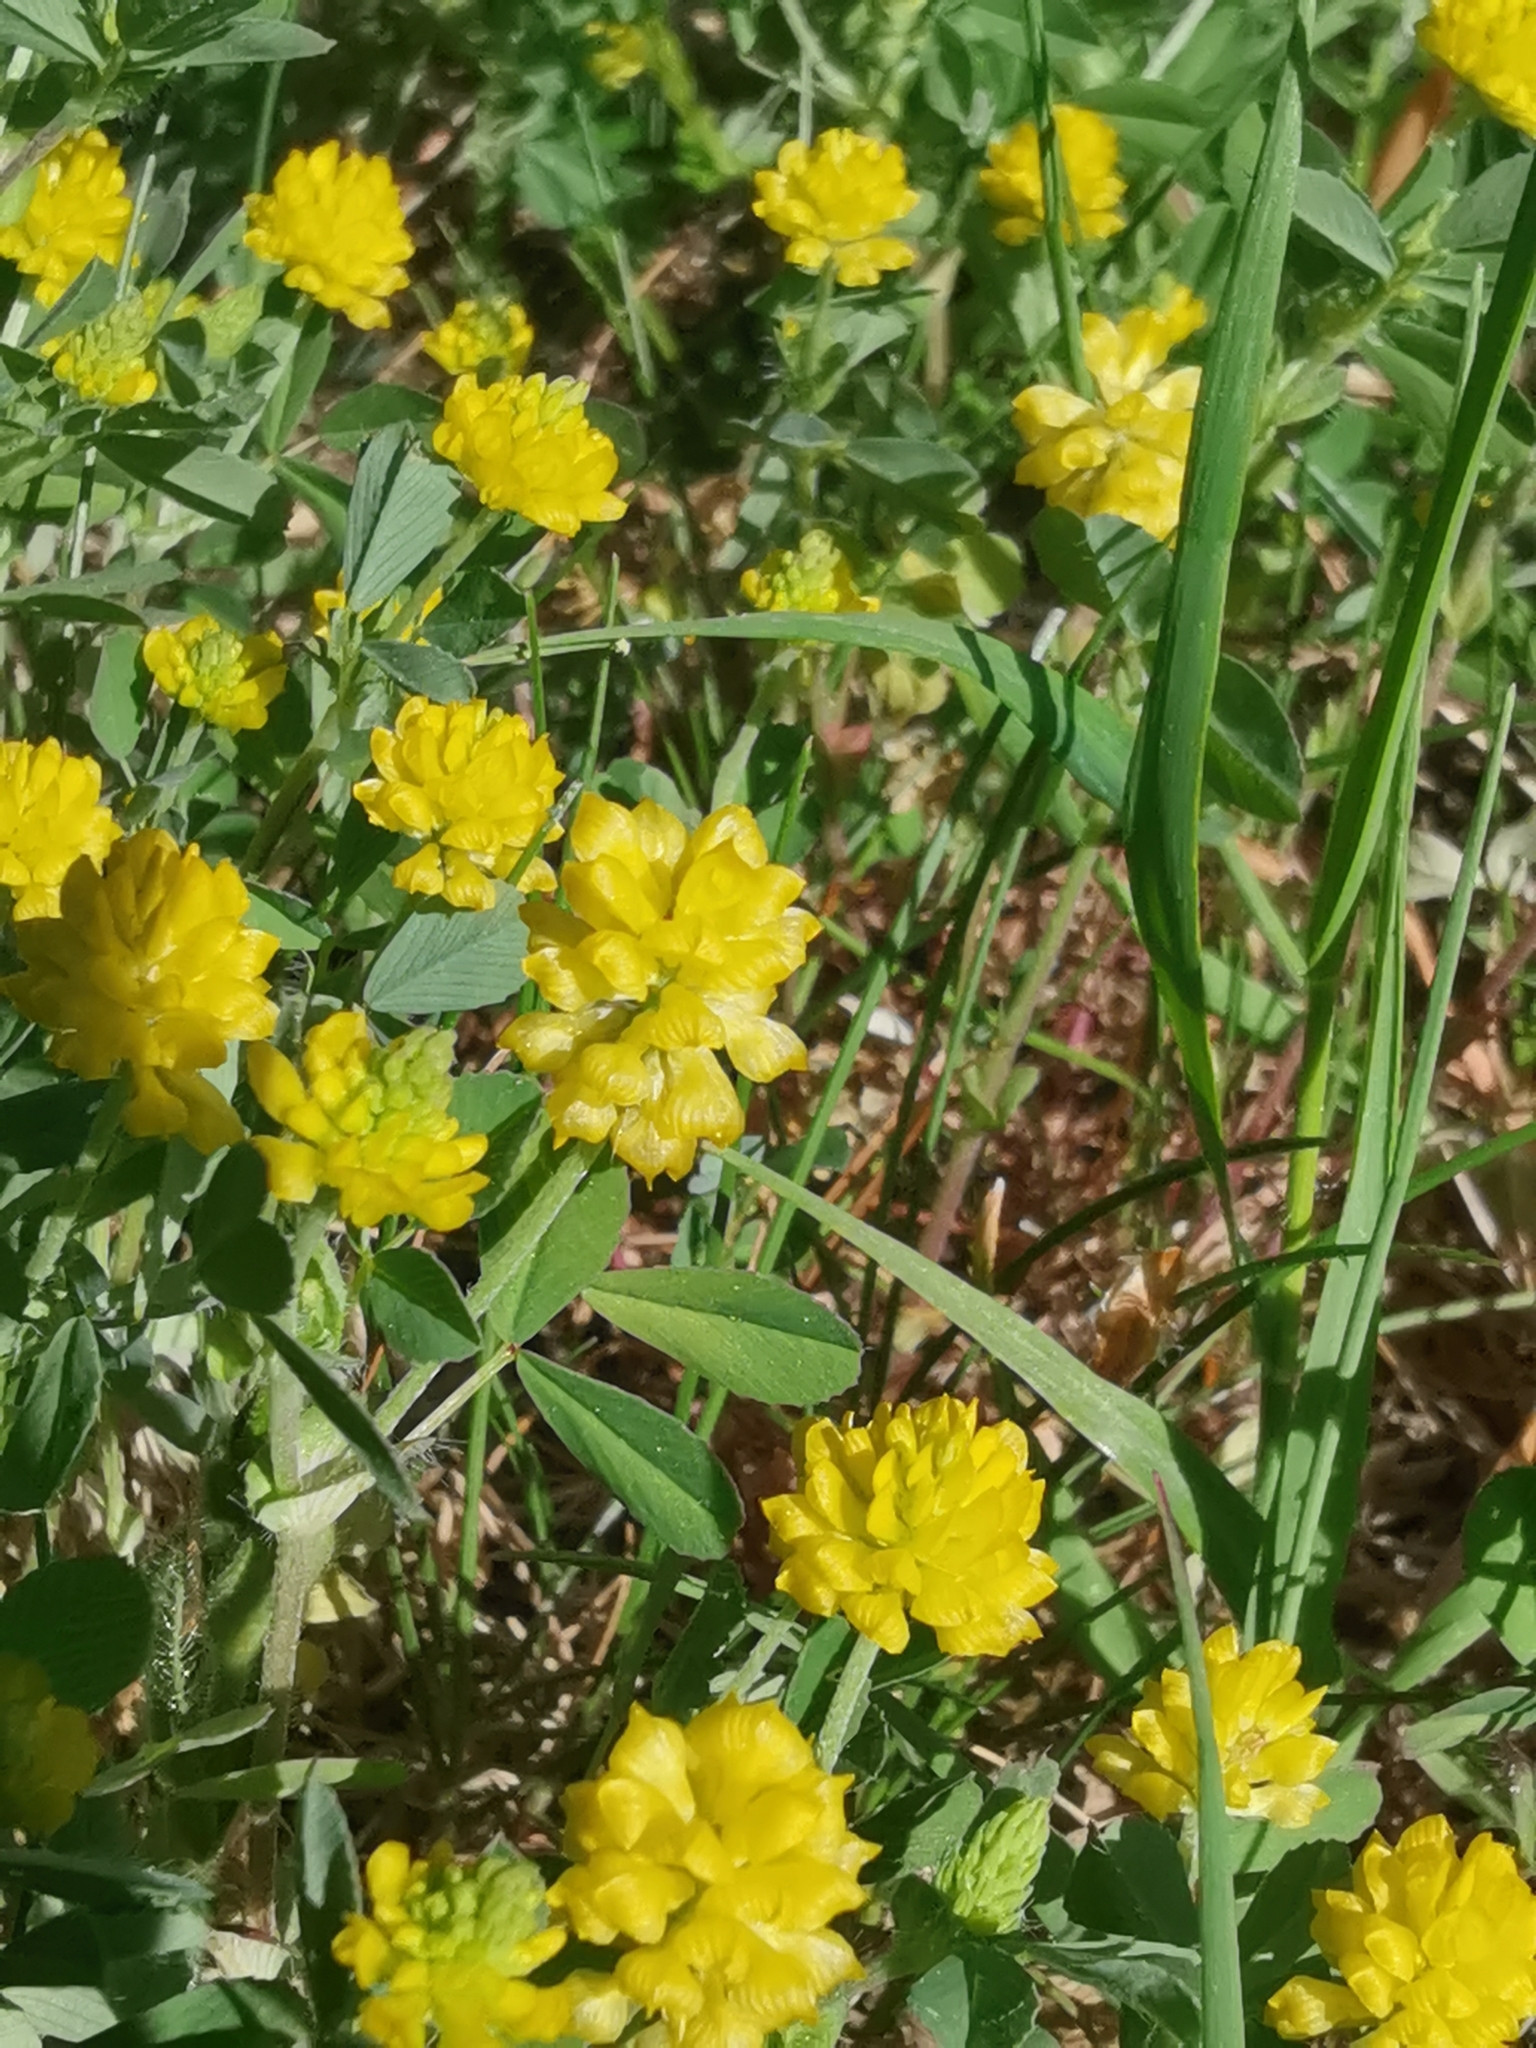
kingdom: Plantae
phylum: Tracheophyta
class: Magnoliopsida
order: Fabales
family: Fabaceae
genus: Trifolium
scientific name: Trifolium campestre
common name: Field clover
